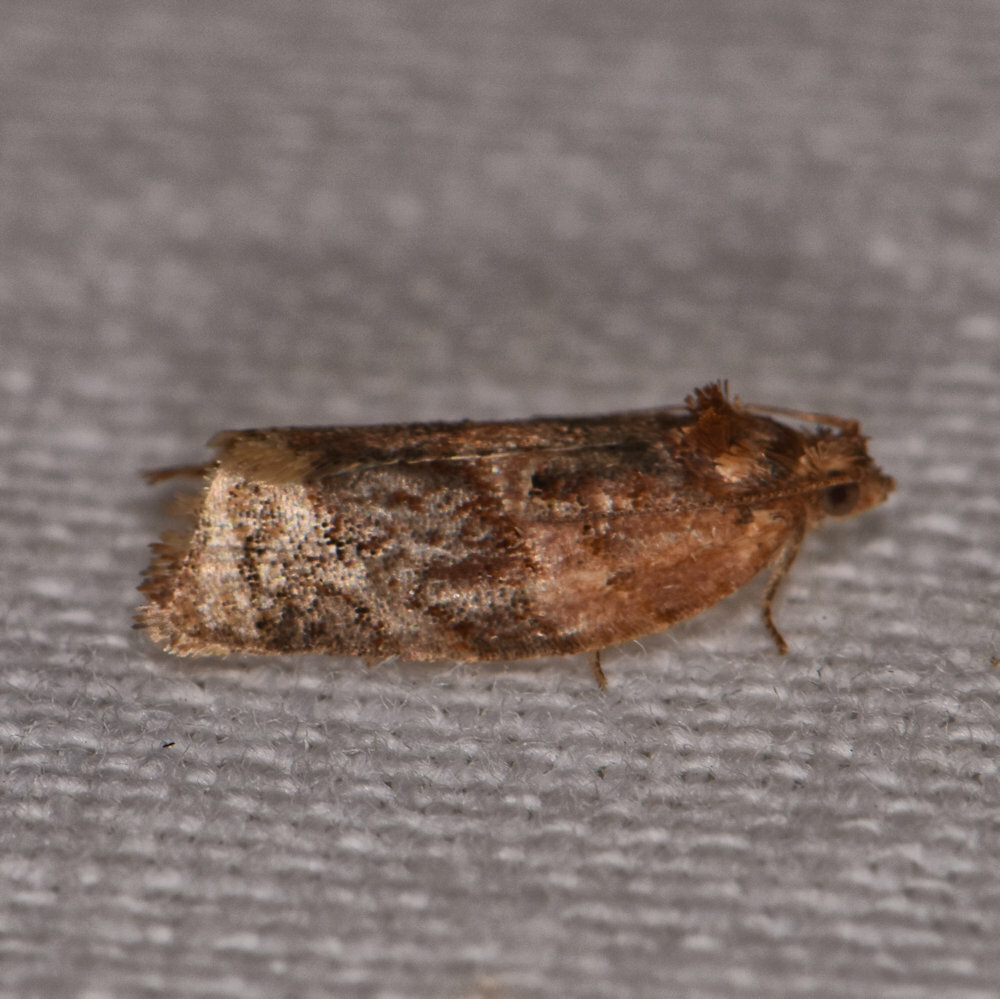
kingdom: Animalia
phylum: Arthropoda
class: Insecta
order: Lepidoptera
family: Tortricidae
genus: Argyrotaenia
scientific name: Argyrotaenia velutinana
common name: Red-banded leafroller moth
